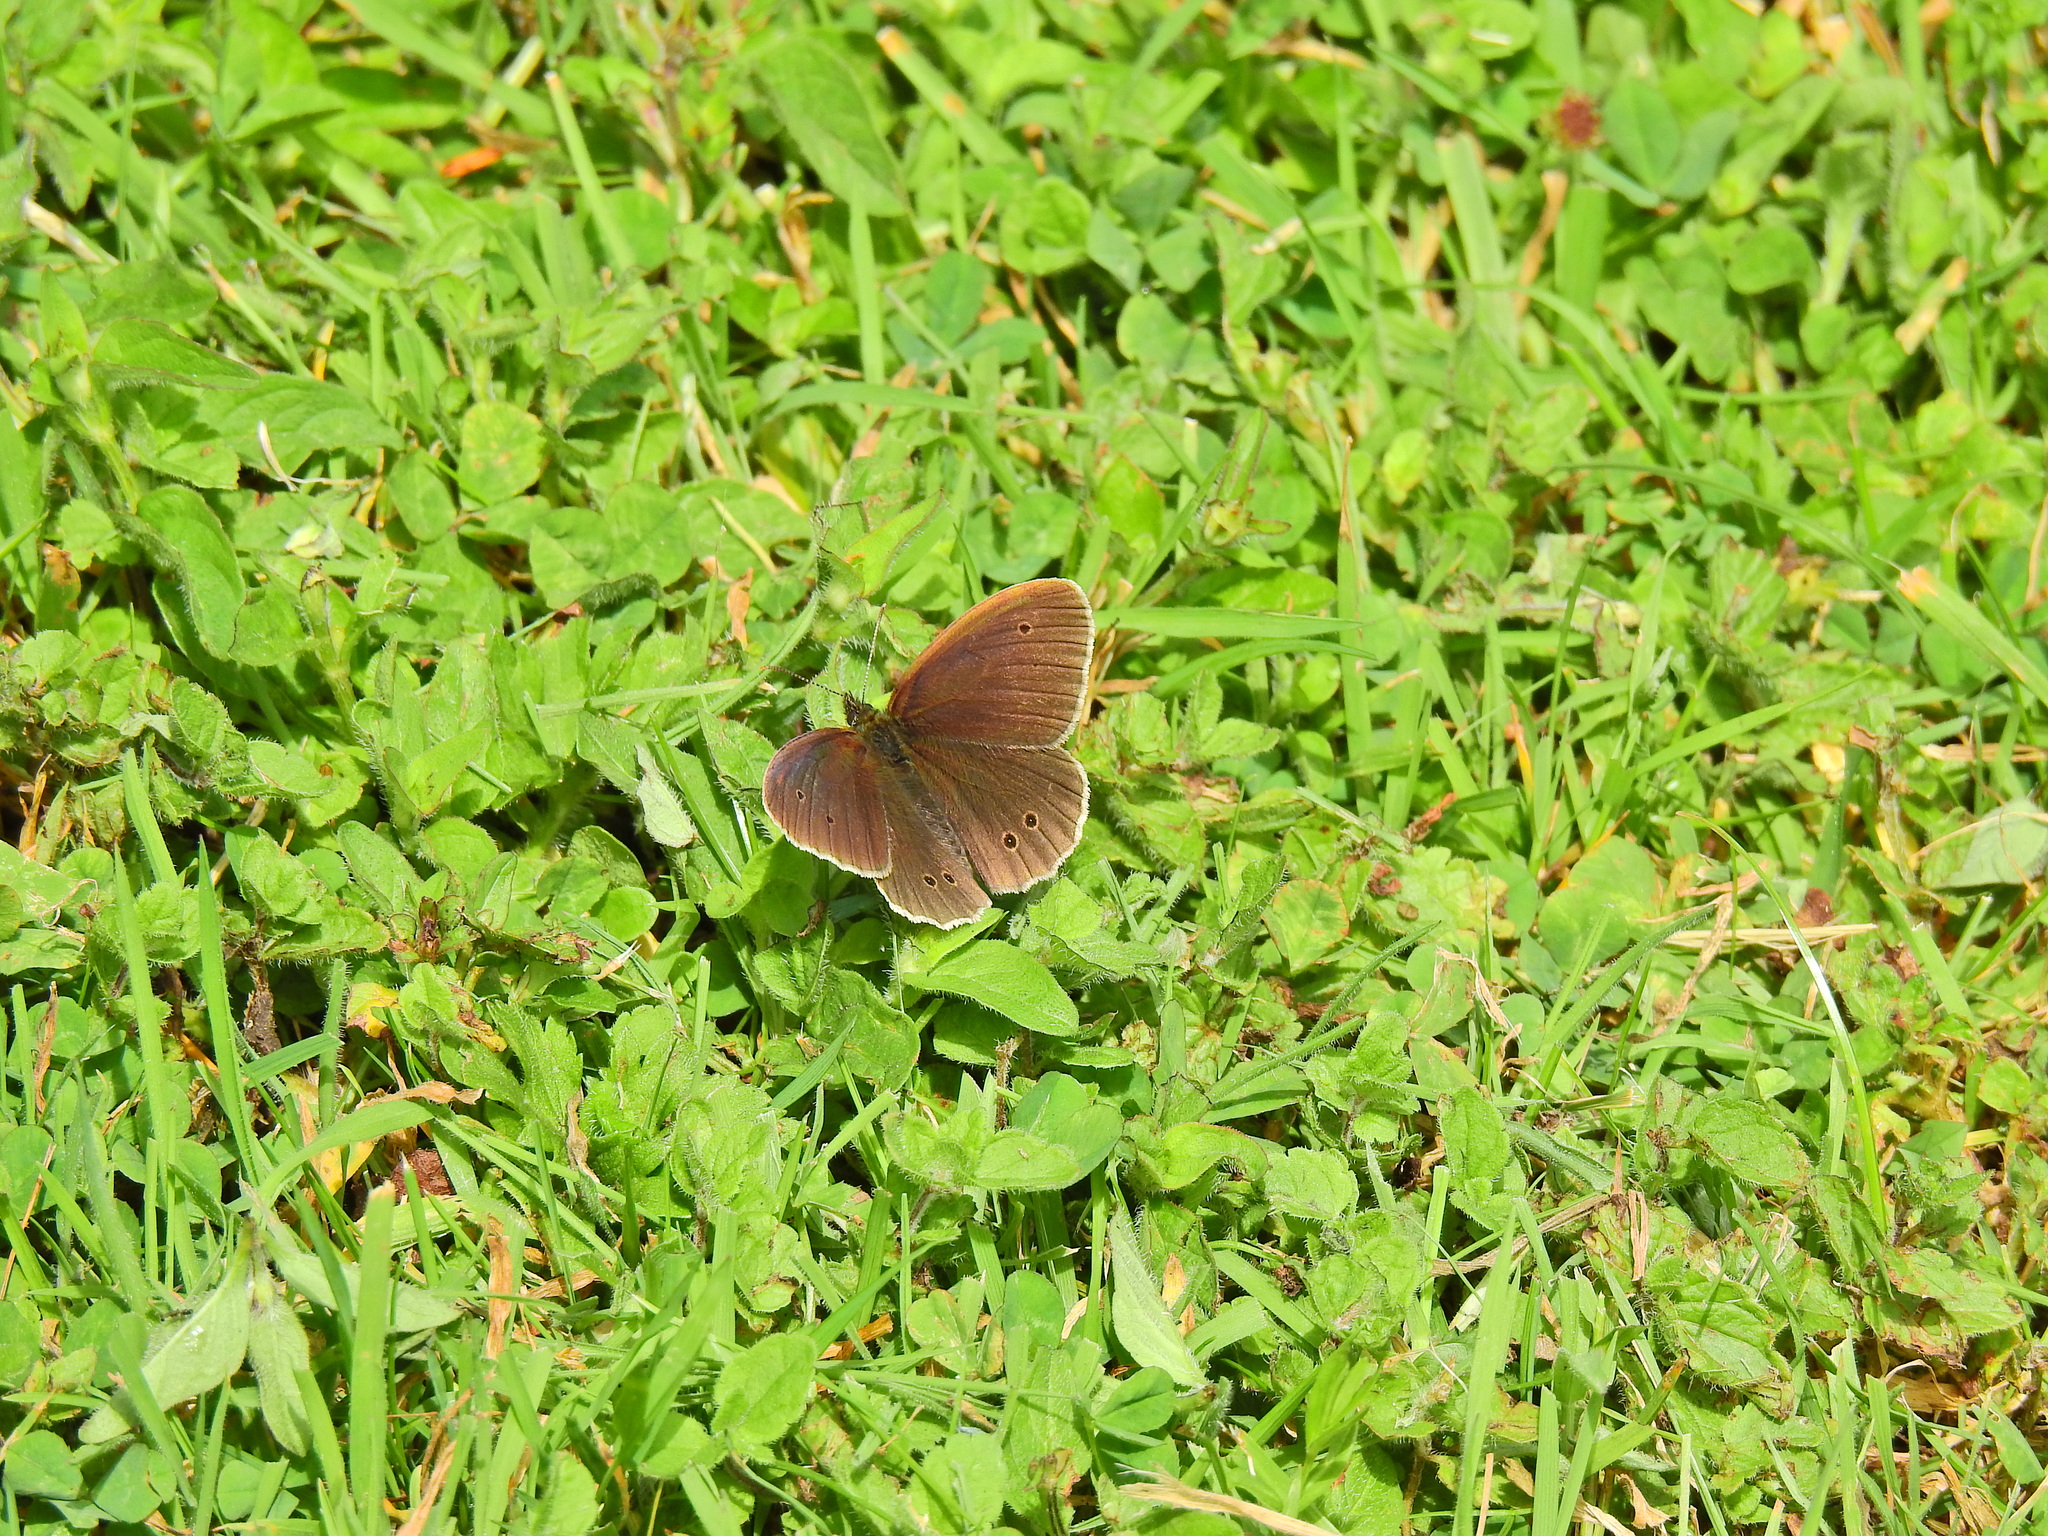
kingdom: Animalia
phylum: Arthropoda
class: Insecta
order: Lepidoptera
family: Nymphalidae
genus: Aphantopus
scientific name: Aphantopus hyperantus
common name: Ringlet
